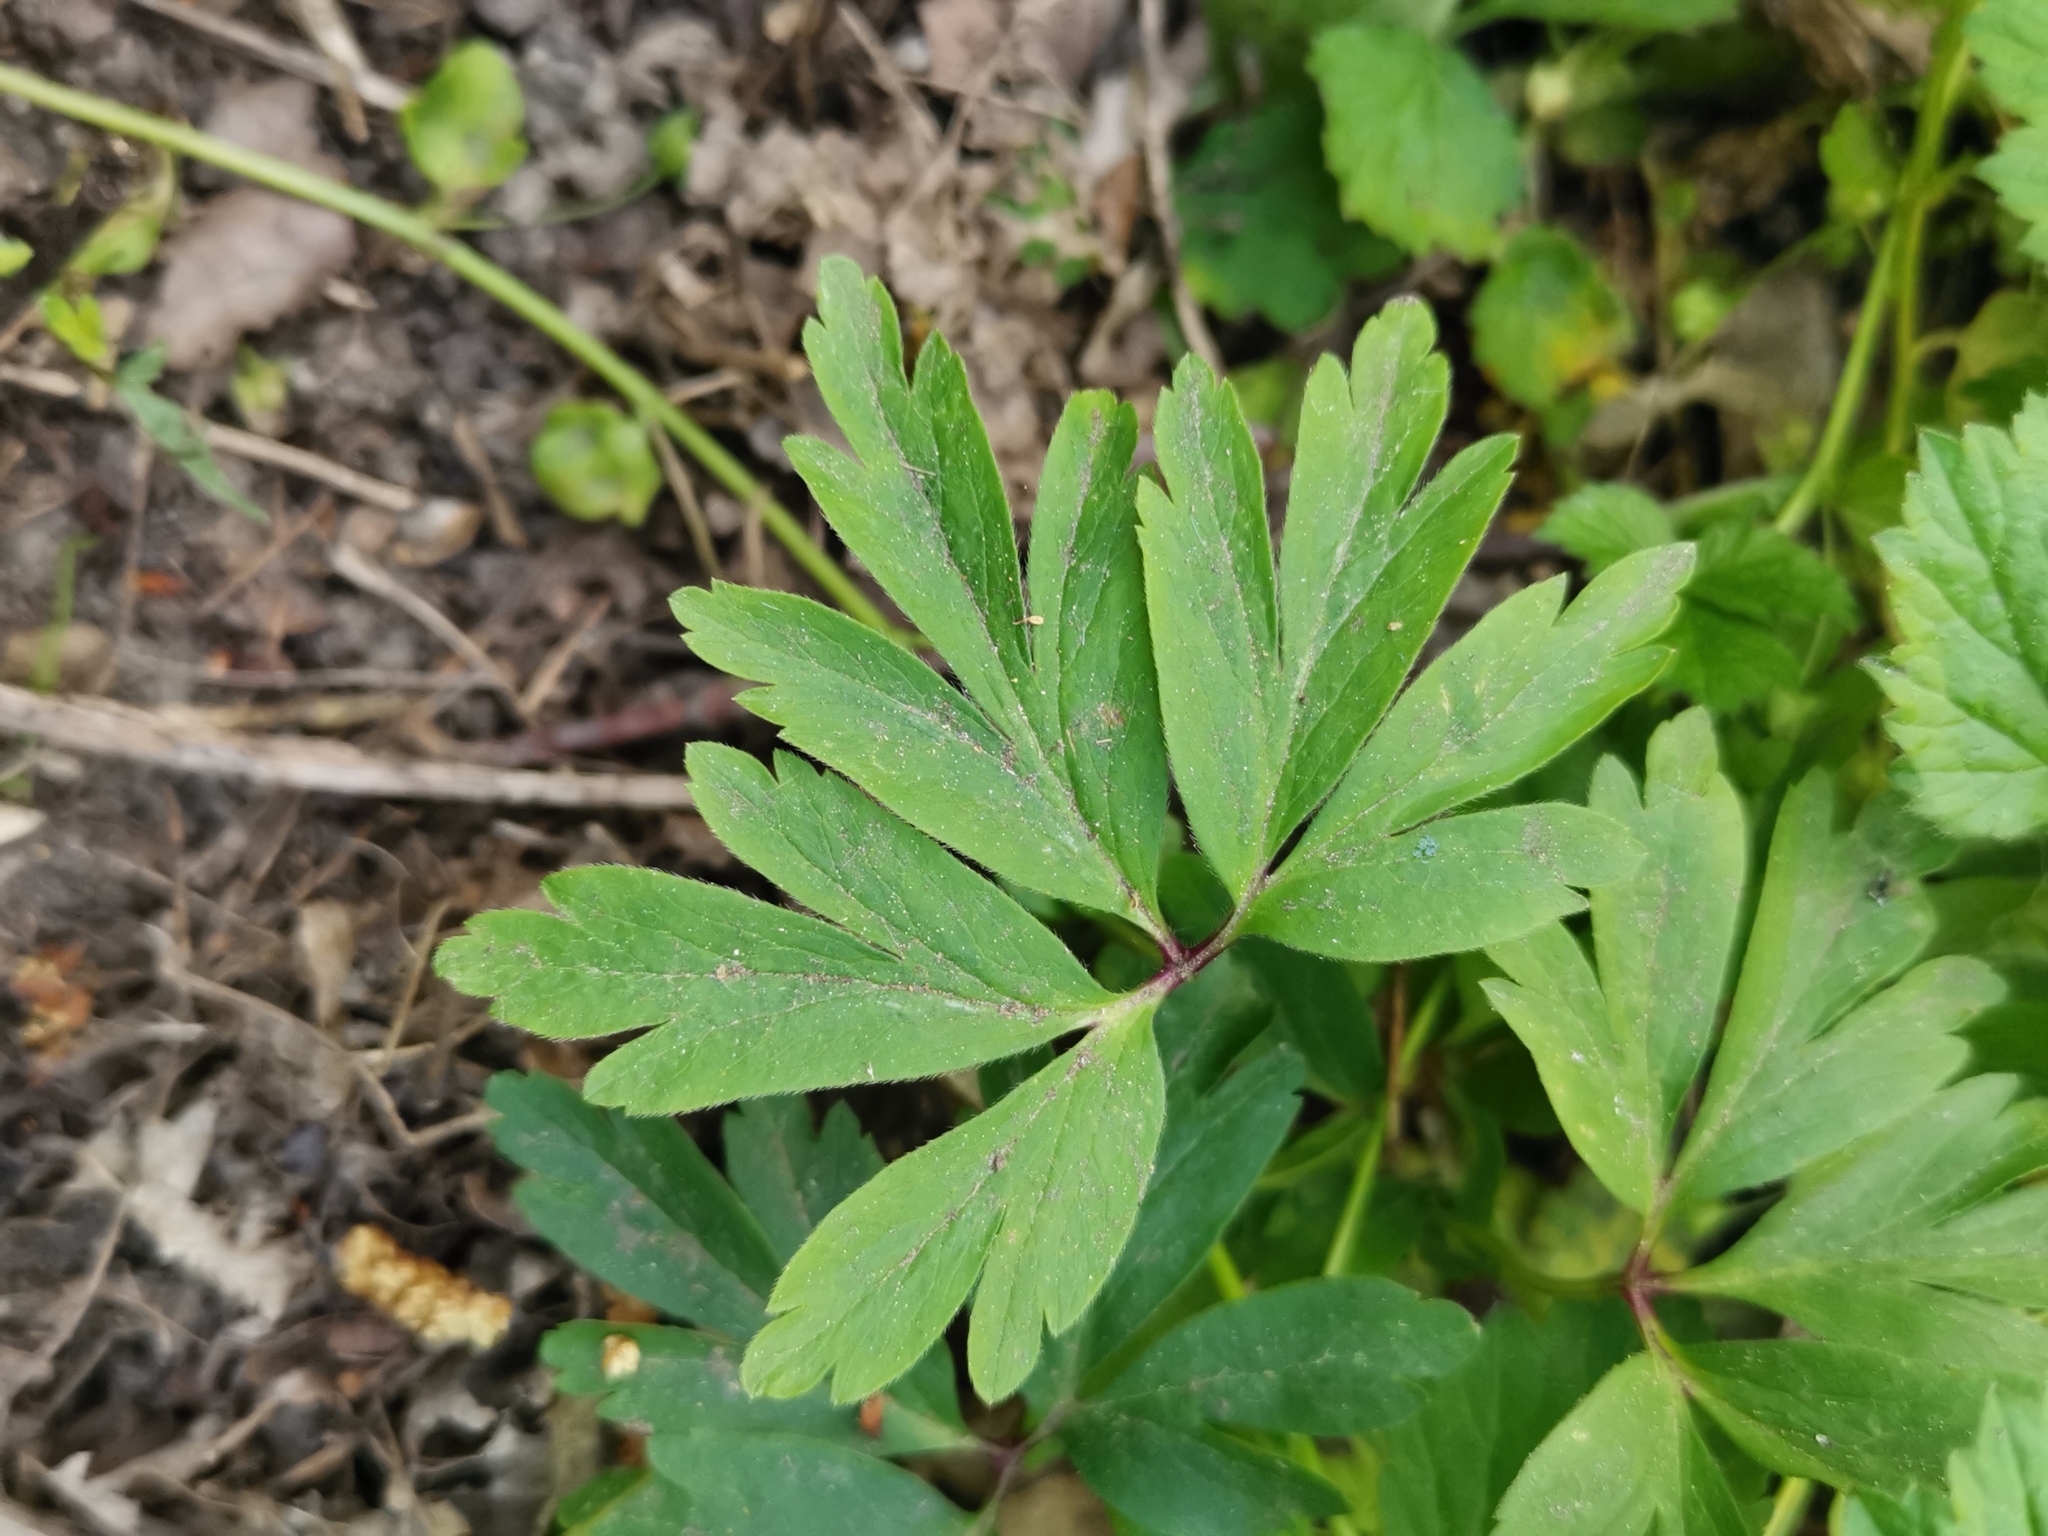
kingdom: Plantae
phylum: Tracheophyta
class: Magnoliopsida
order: Ranunculales
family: Ranunculaceae
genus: Anemone
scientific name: Anemone nemorosa
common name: Wood anemone
